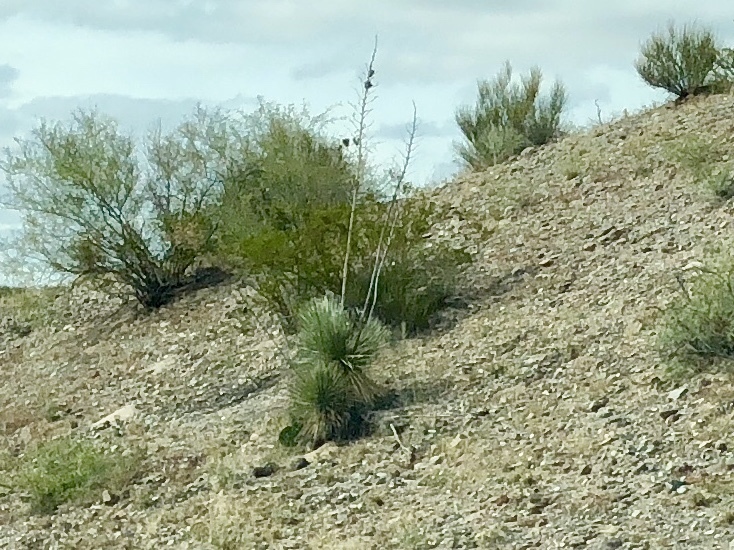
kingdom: Plantae
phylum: Tracheophyta
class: Liliopsida
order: Asparagales
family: Asparagaceae
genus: Yucca
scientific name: Yucca elata
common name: Palmella
